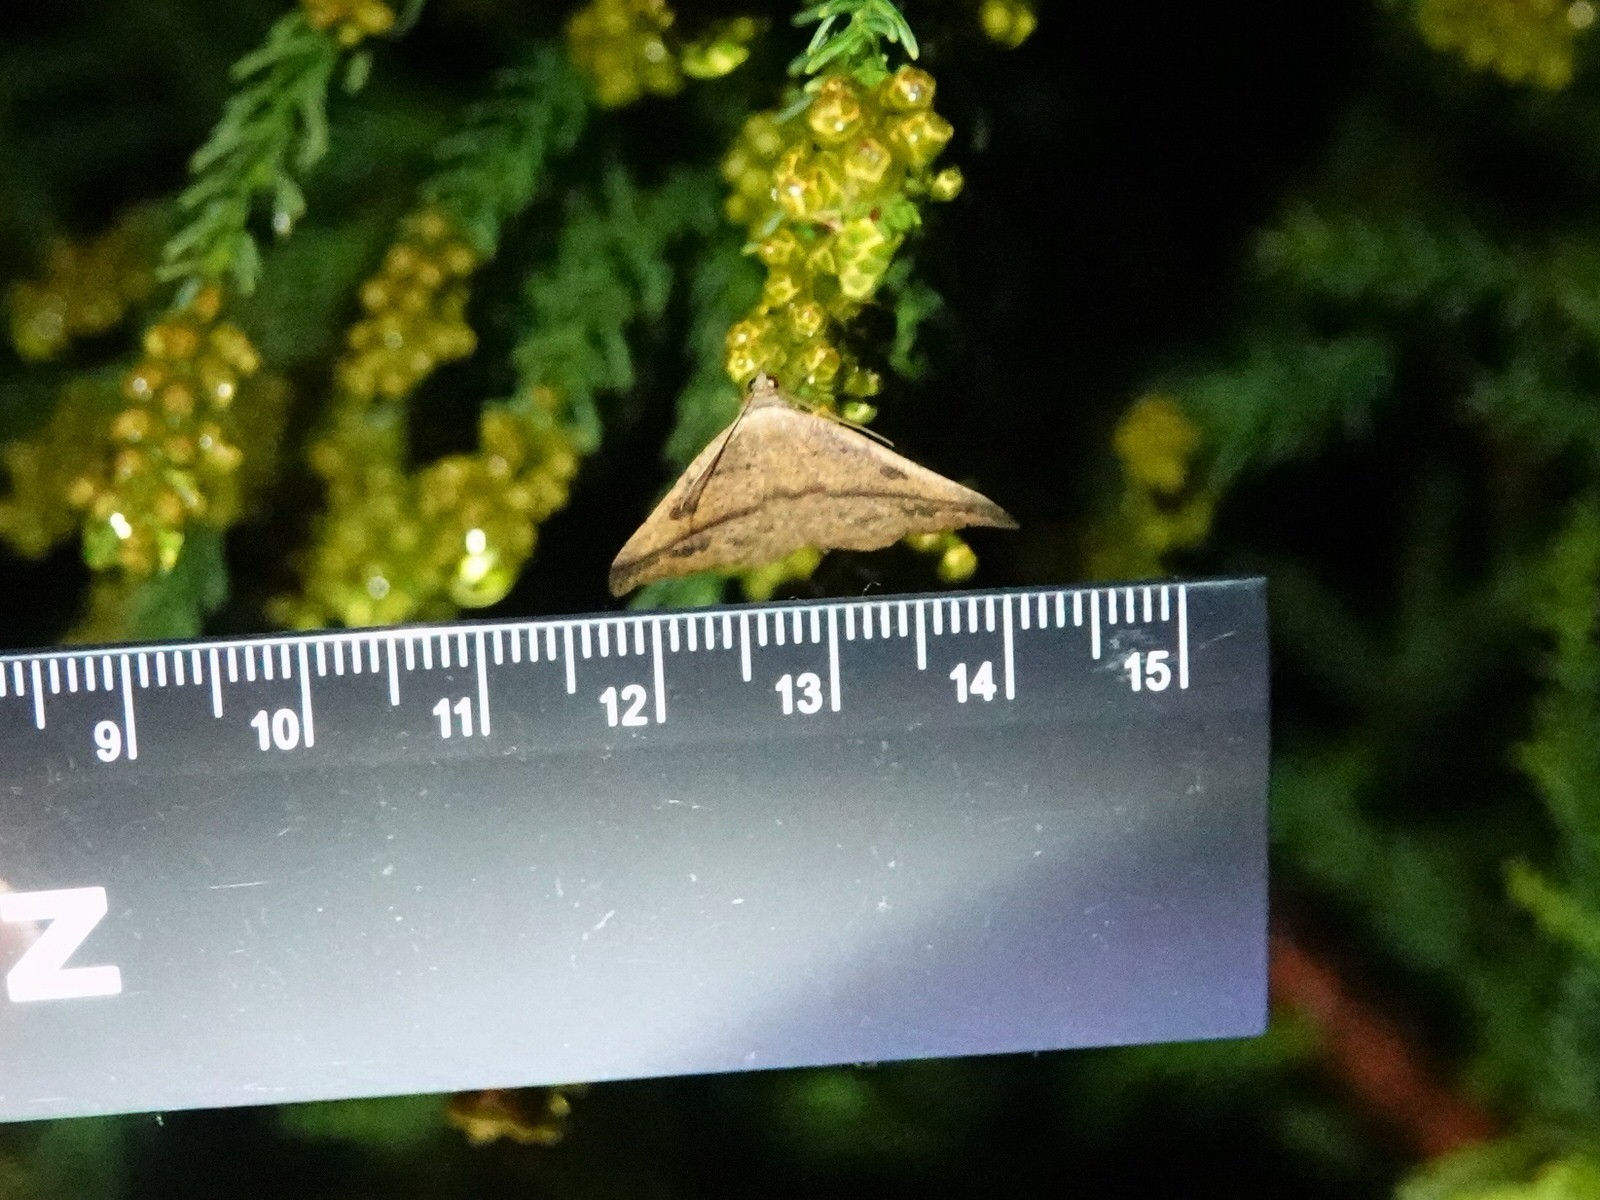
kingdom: Animalia
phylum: Arthropoda
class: Insecta
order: Lepidoptera
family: Geometridae
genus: Sarisa
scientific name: Sarisa muriferata
